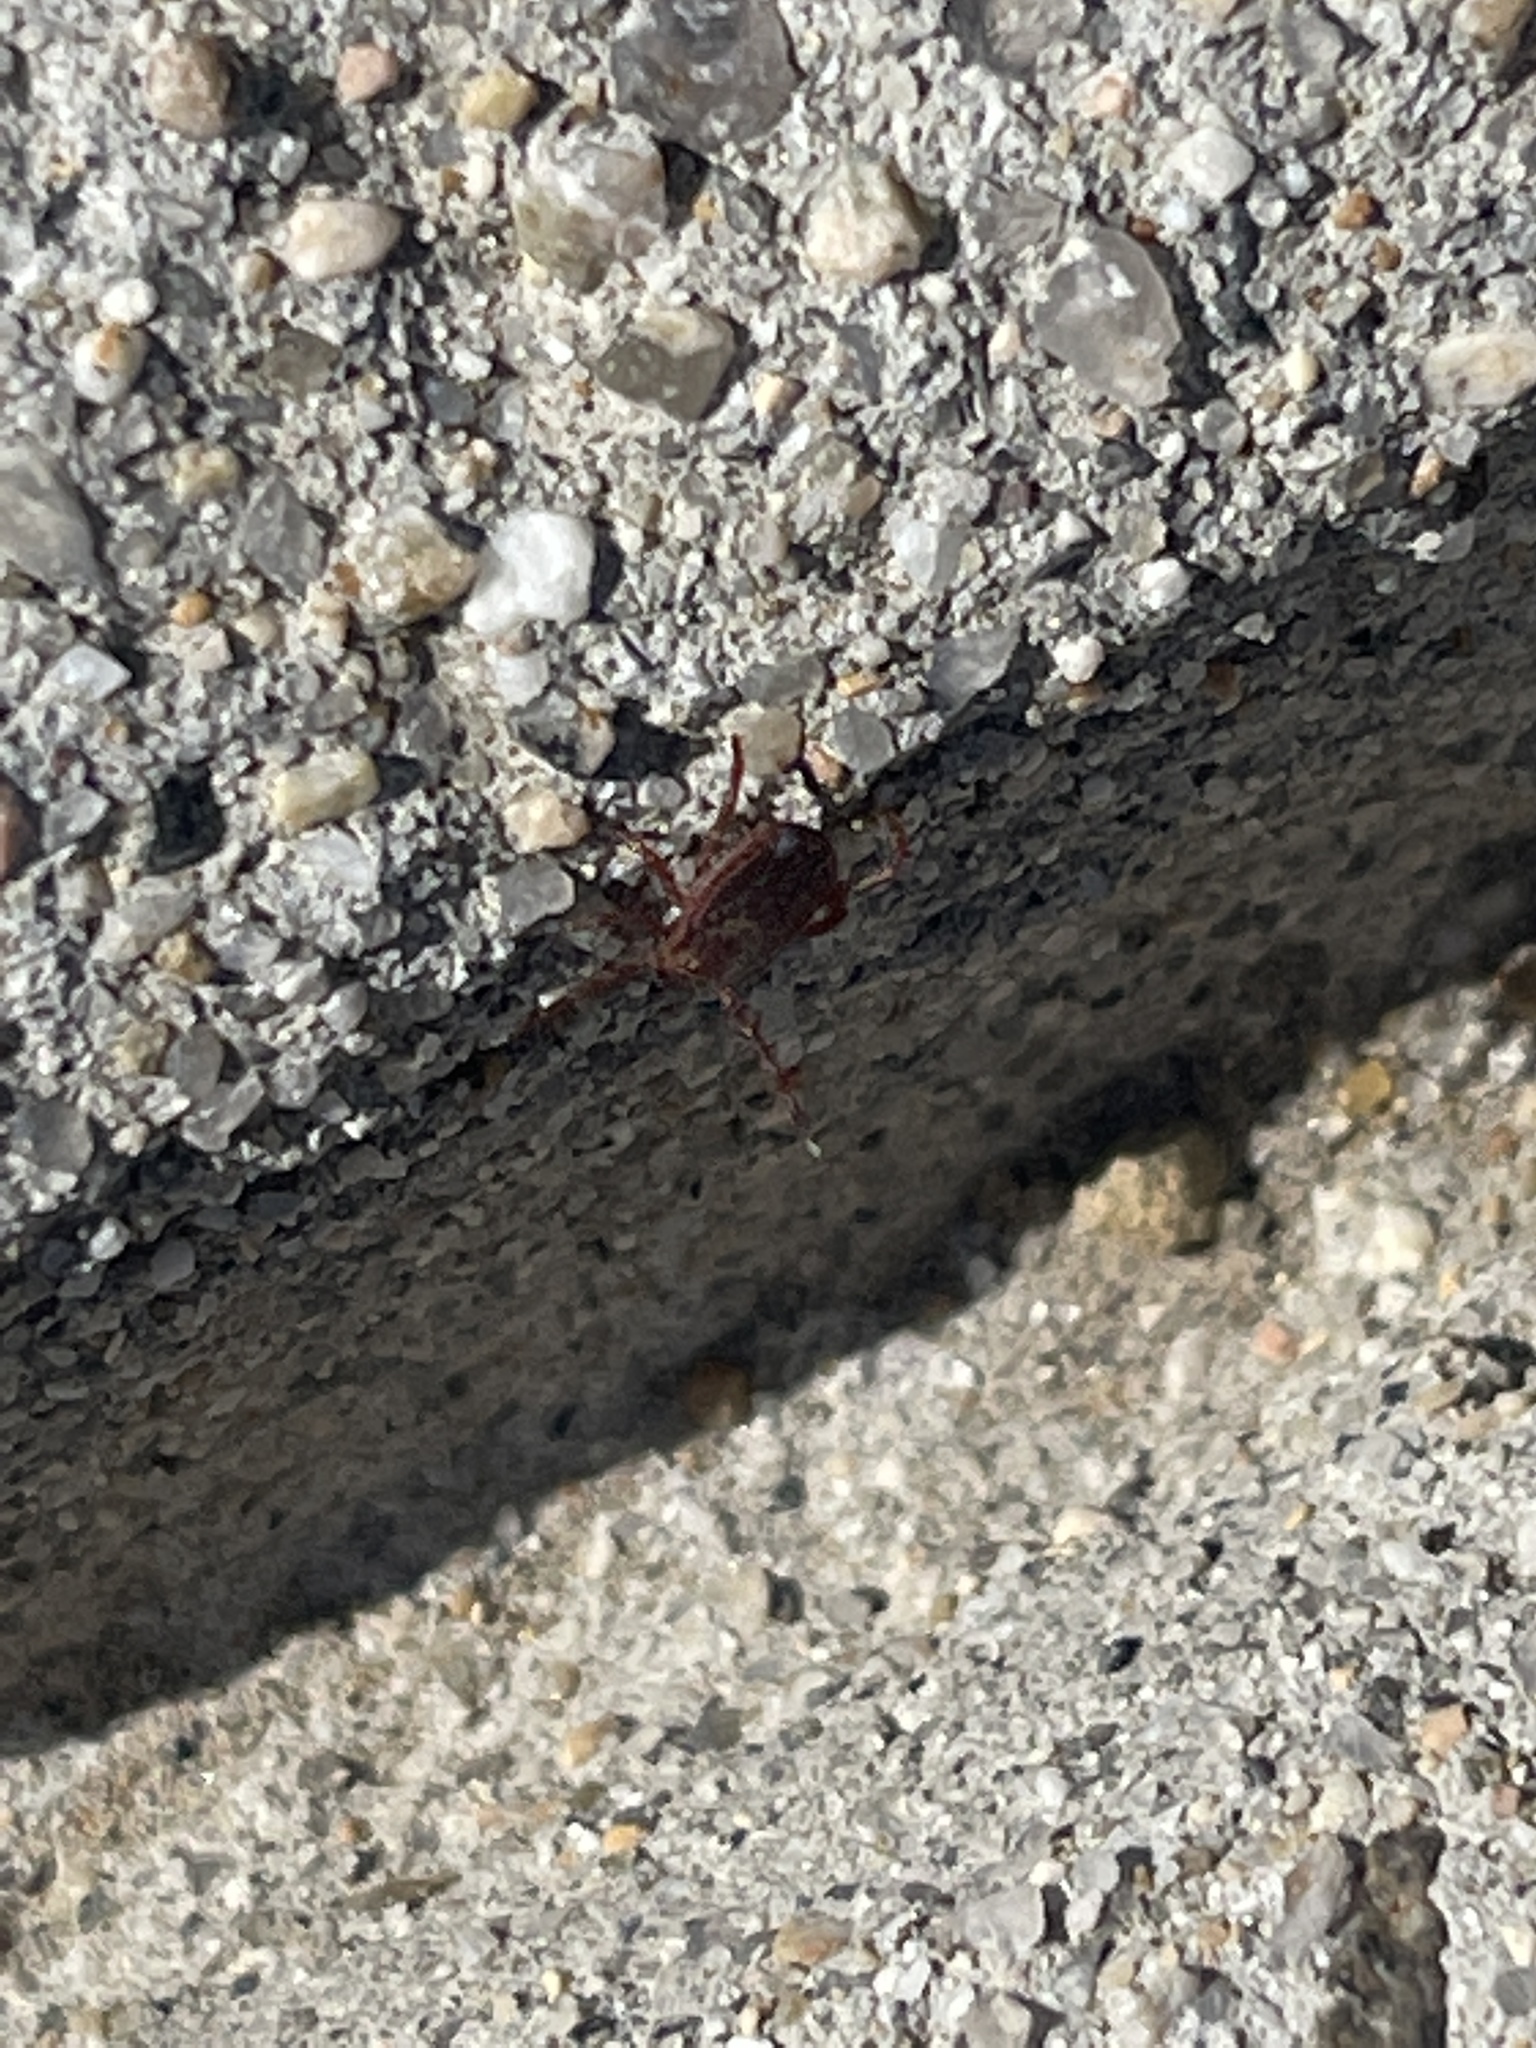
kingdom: Animalia
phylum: Arthropoda
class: Arachnida
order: Ixodida
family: Ixodidae
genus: Dermacentor
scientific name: Dermacentor variabilis
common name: American dog tick
